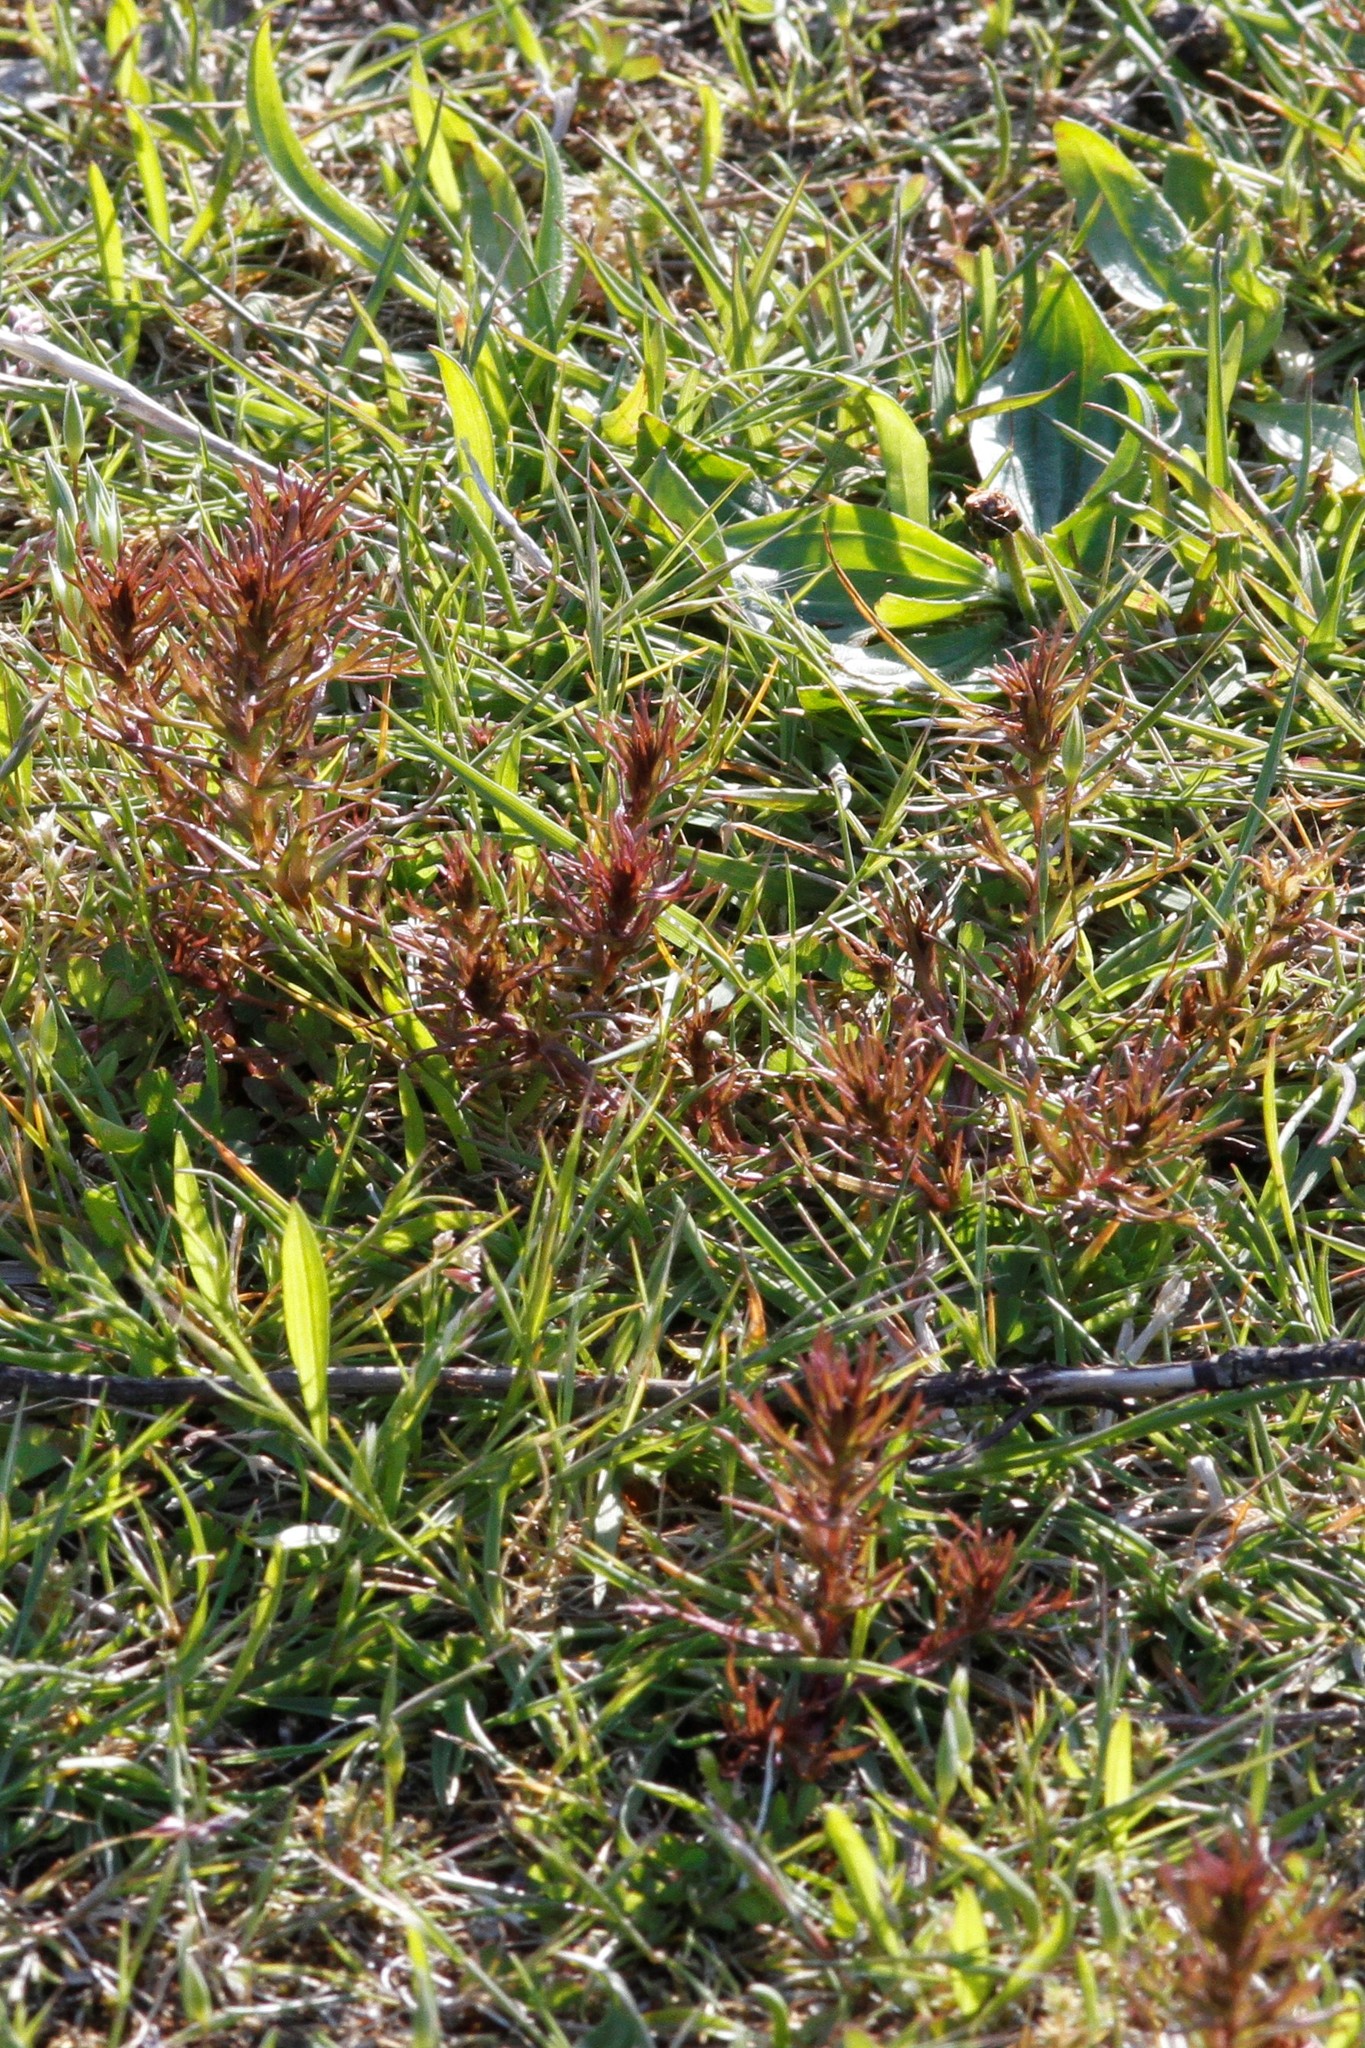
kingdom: Plantae
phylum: Tracheophyta
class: Magnoliopsida
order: Lamiales
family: Orobanchaceae
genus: Triphysaria
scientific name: Triphysaria pusilla
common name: Dwarf false owl-clover
